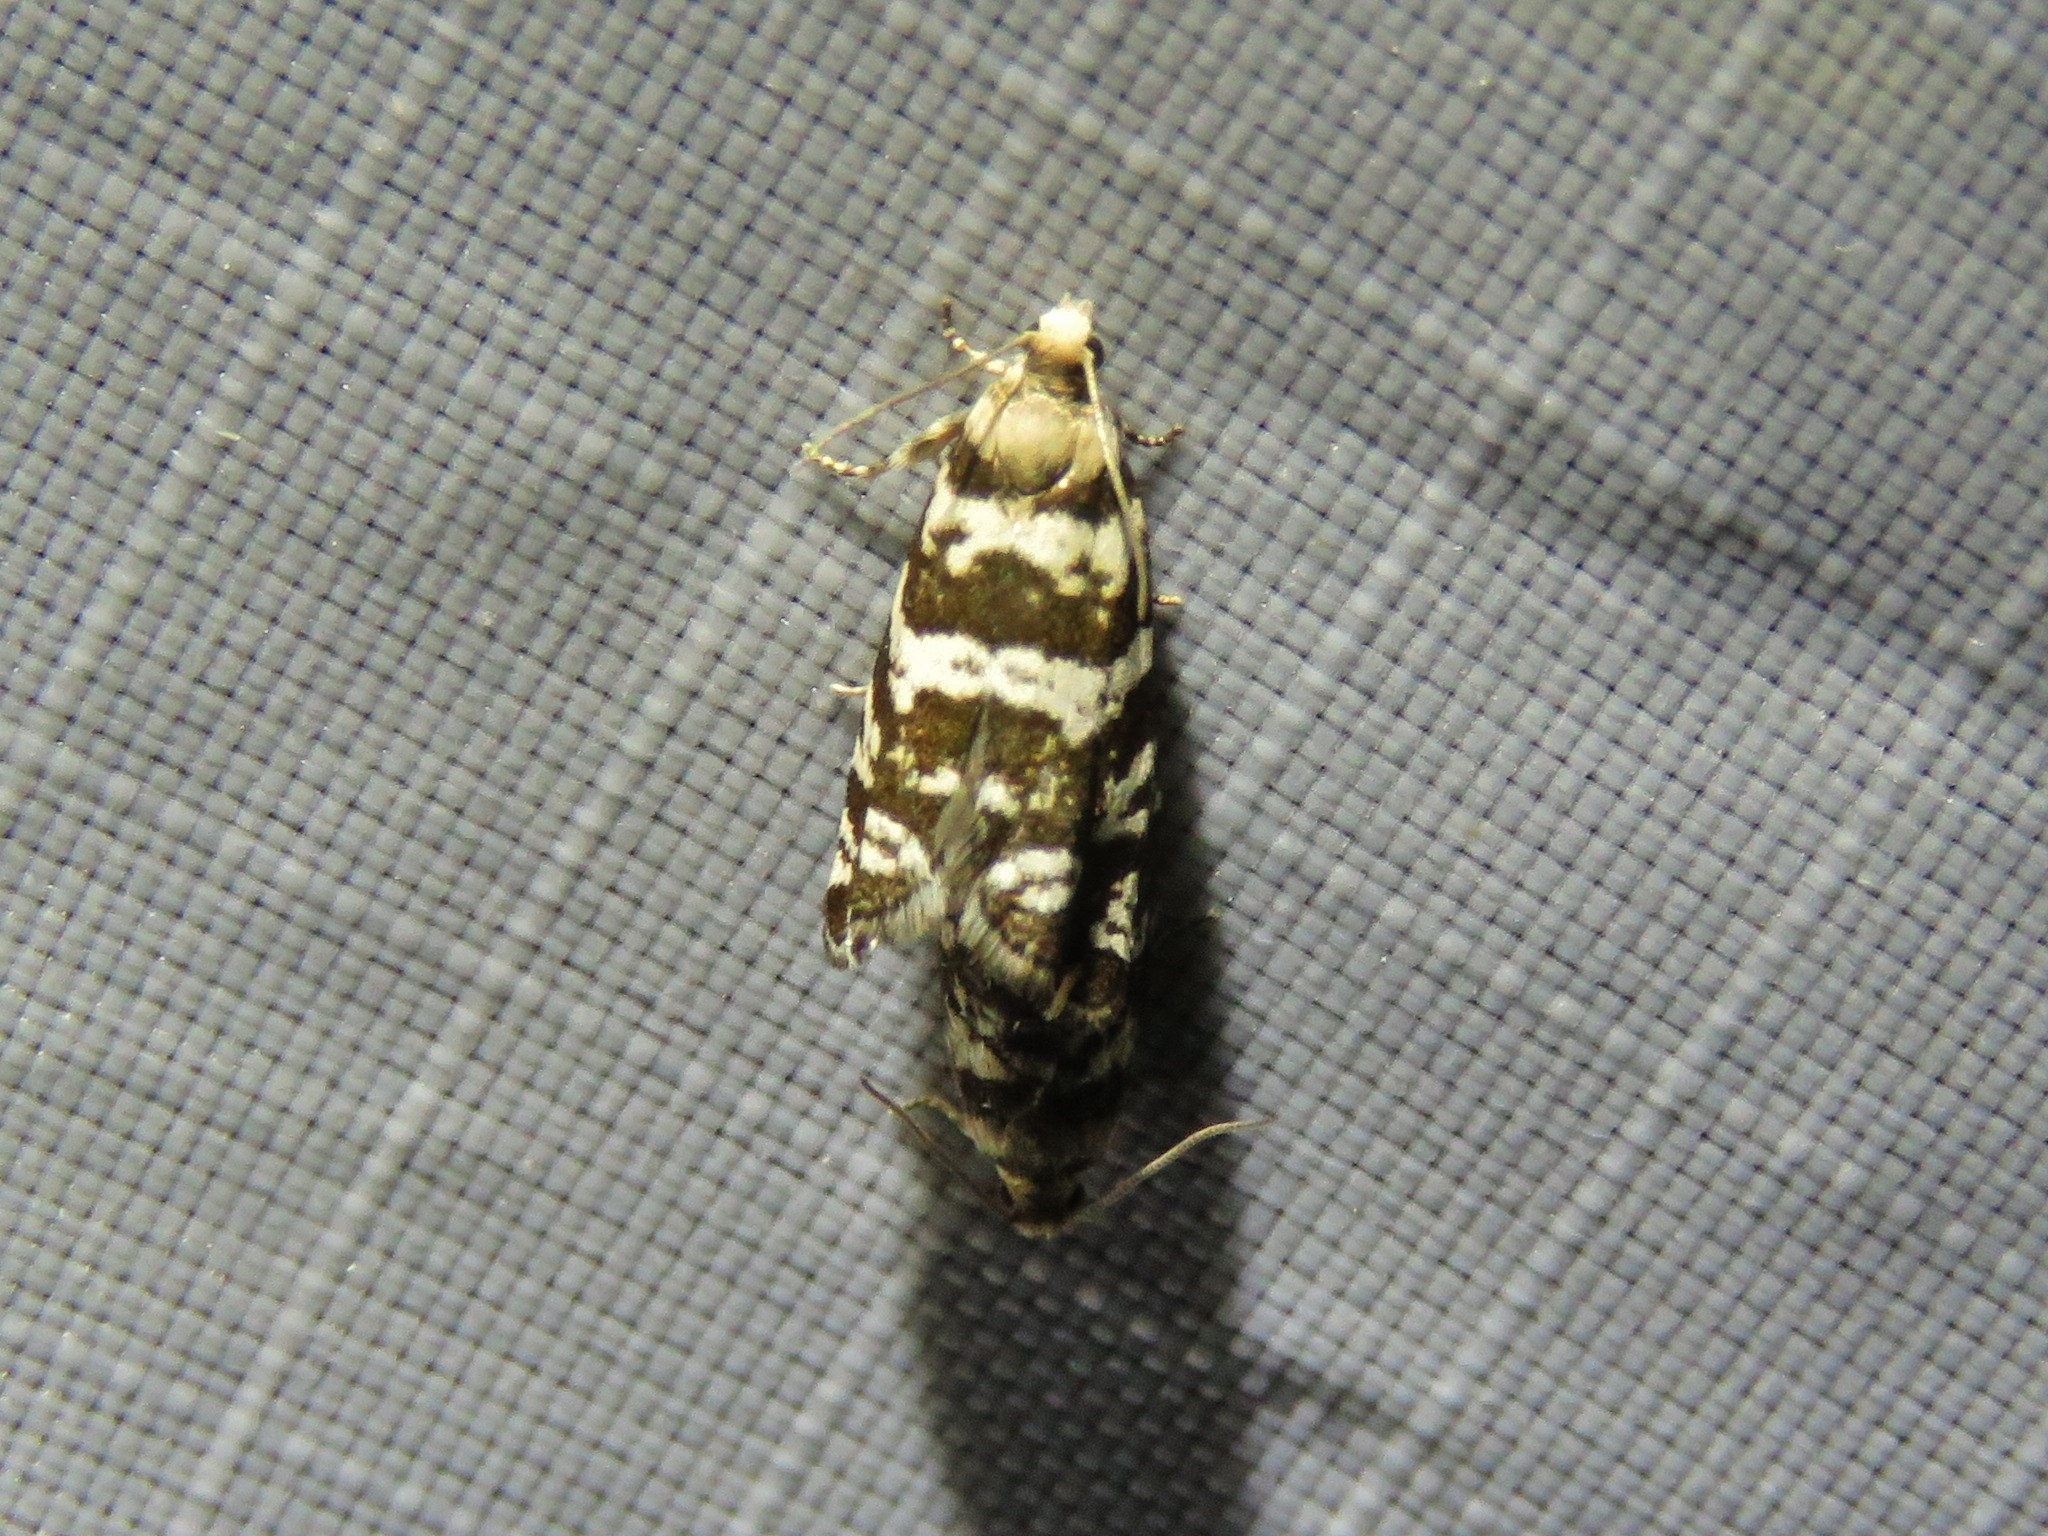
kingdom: Animalia
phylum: Arthropoda
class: Insecta
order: Lepidoptera
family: Tortricidae
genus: Epinotia
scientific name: Epinotia tedella
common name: Common spruce bell
